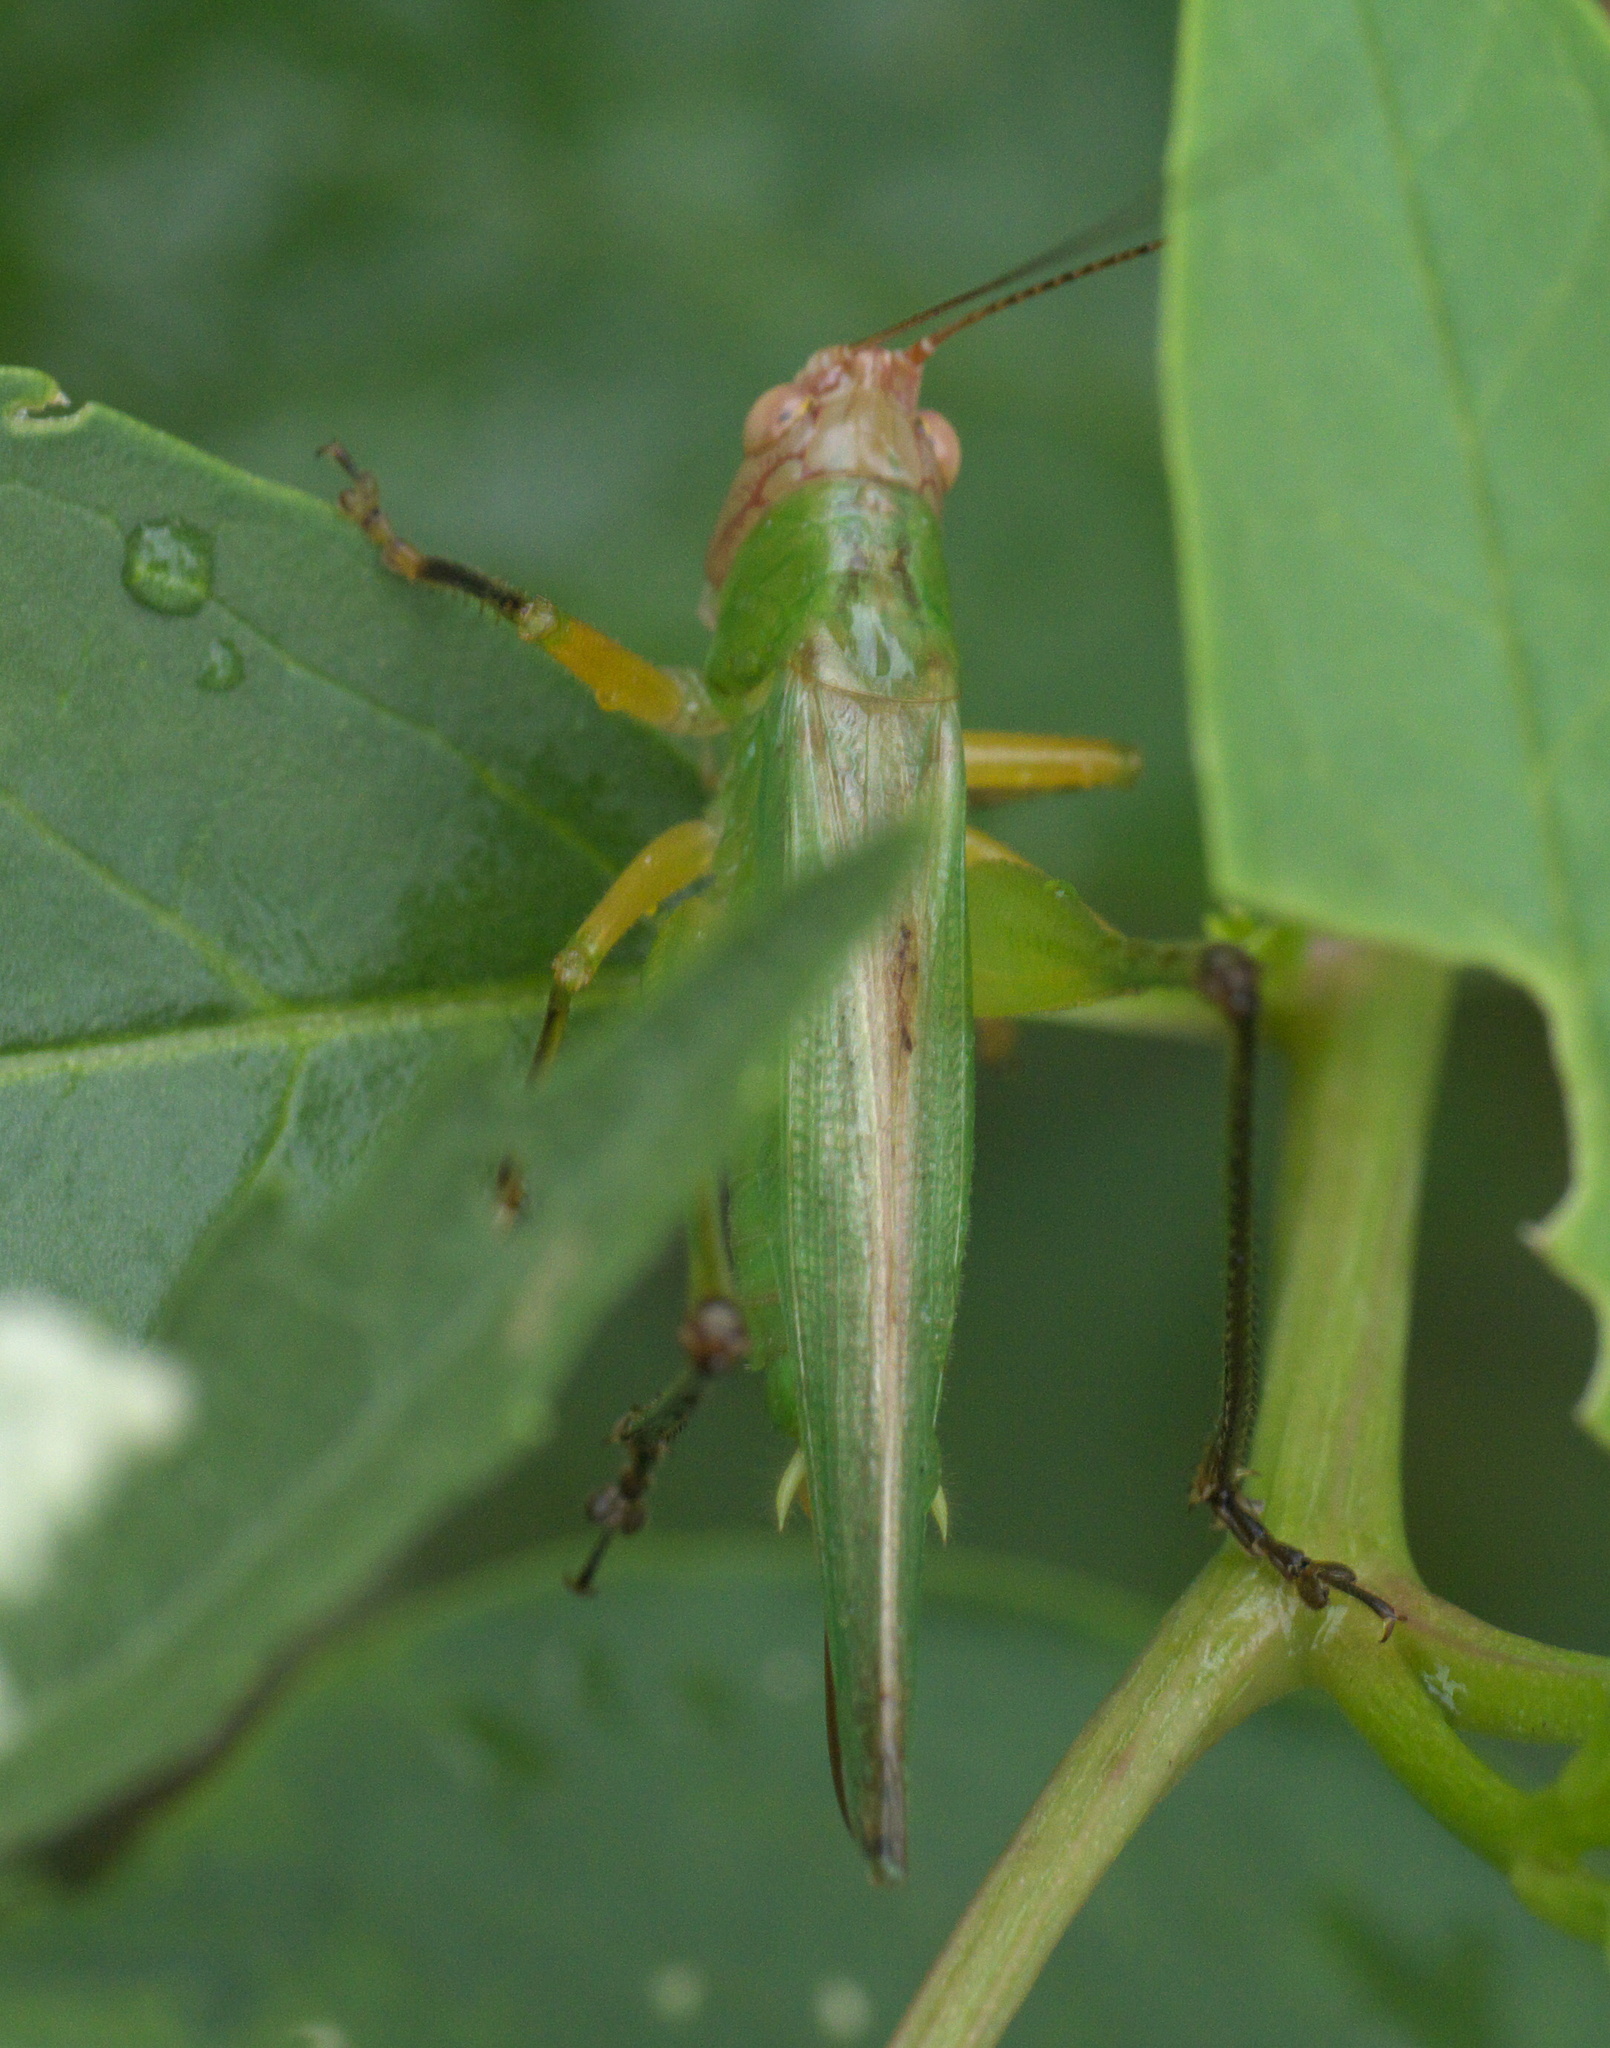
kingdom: Animalia
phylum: Arthropoda
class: Insecta
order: Orthoptera
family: Tettigoniidae
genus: Orchelimum
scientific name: Orchelimum nigripes
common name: Black-legged meadow katydid
